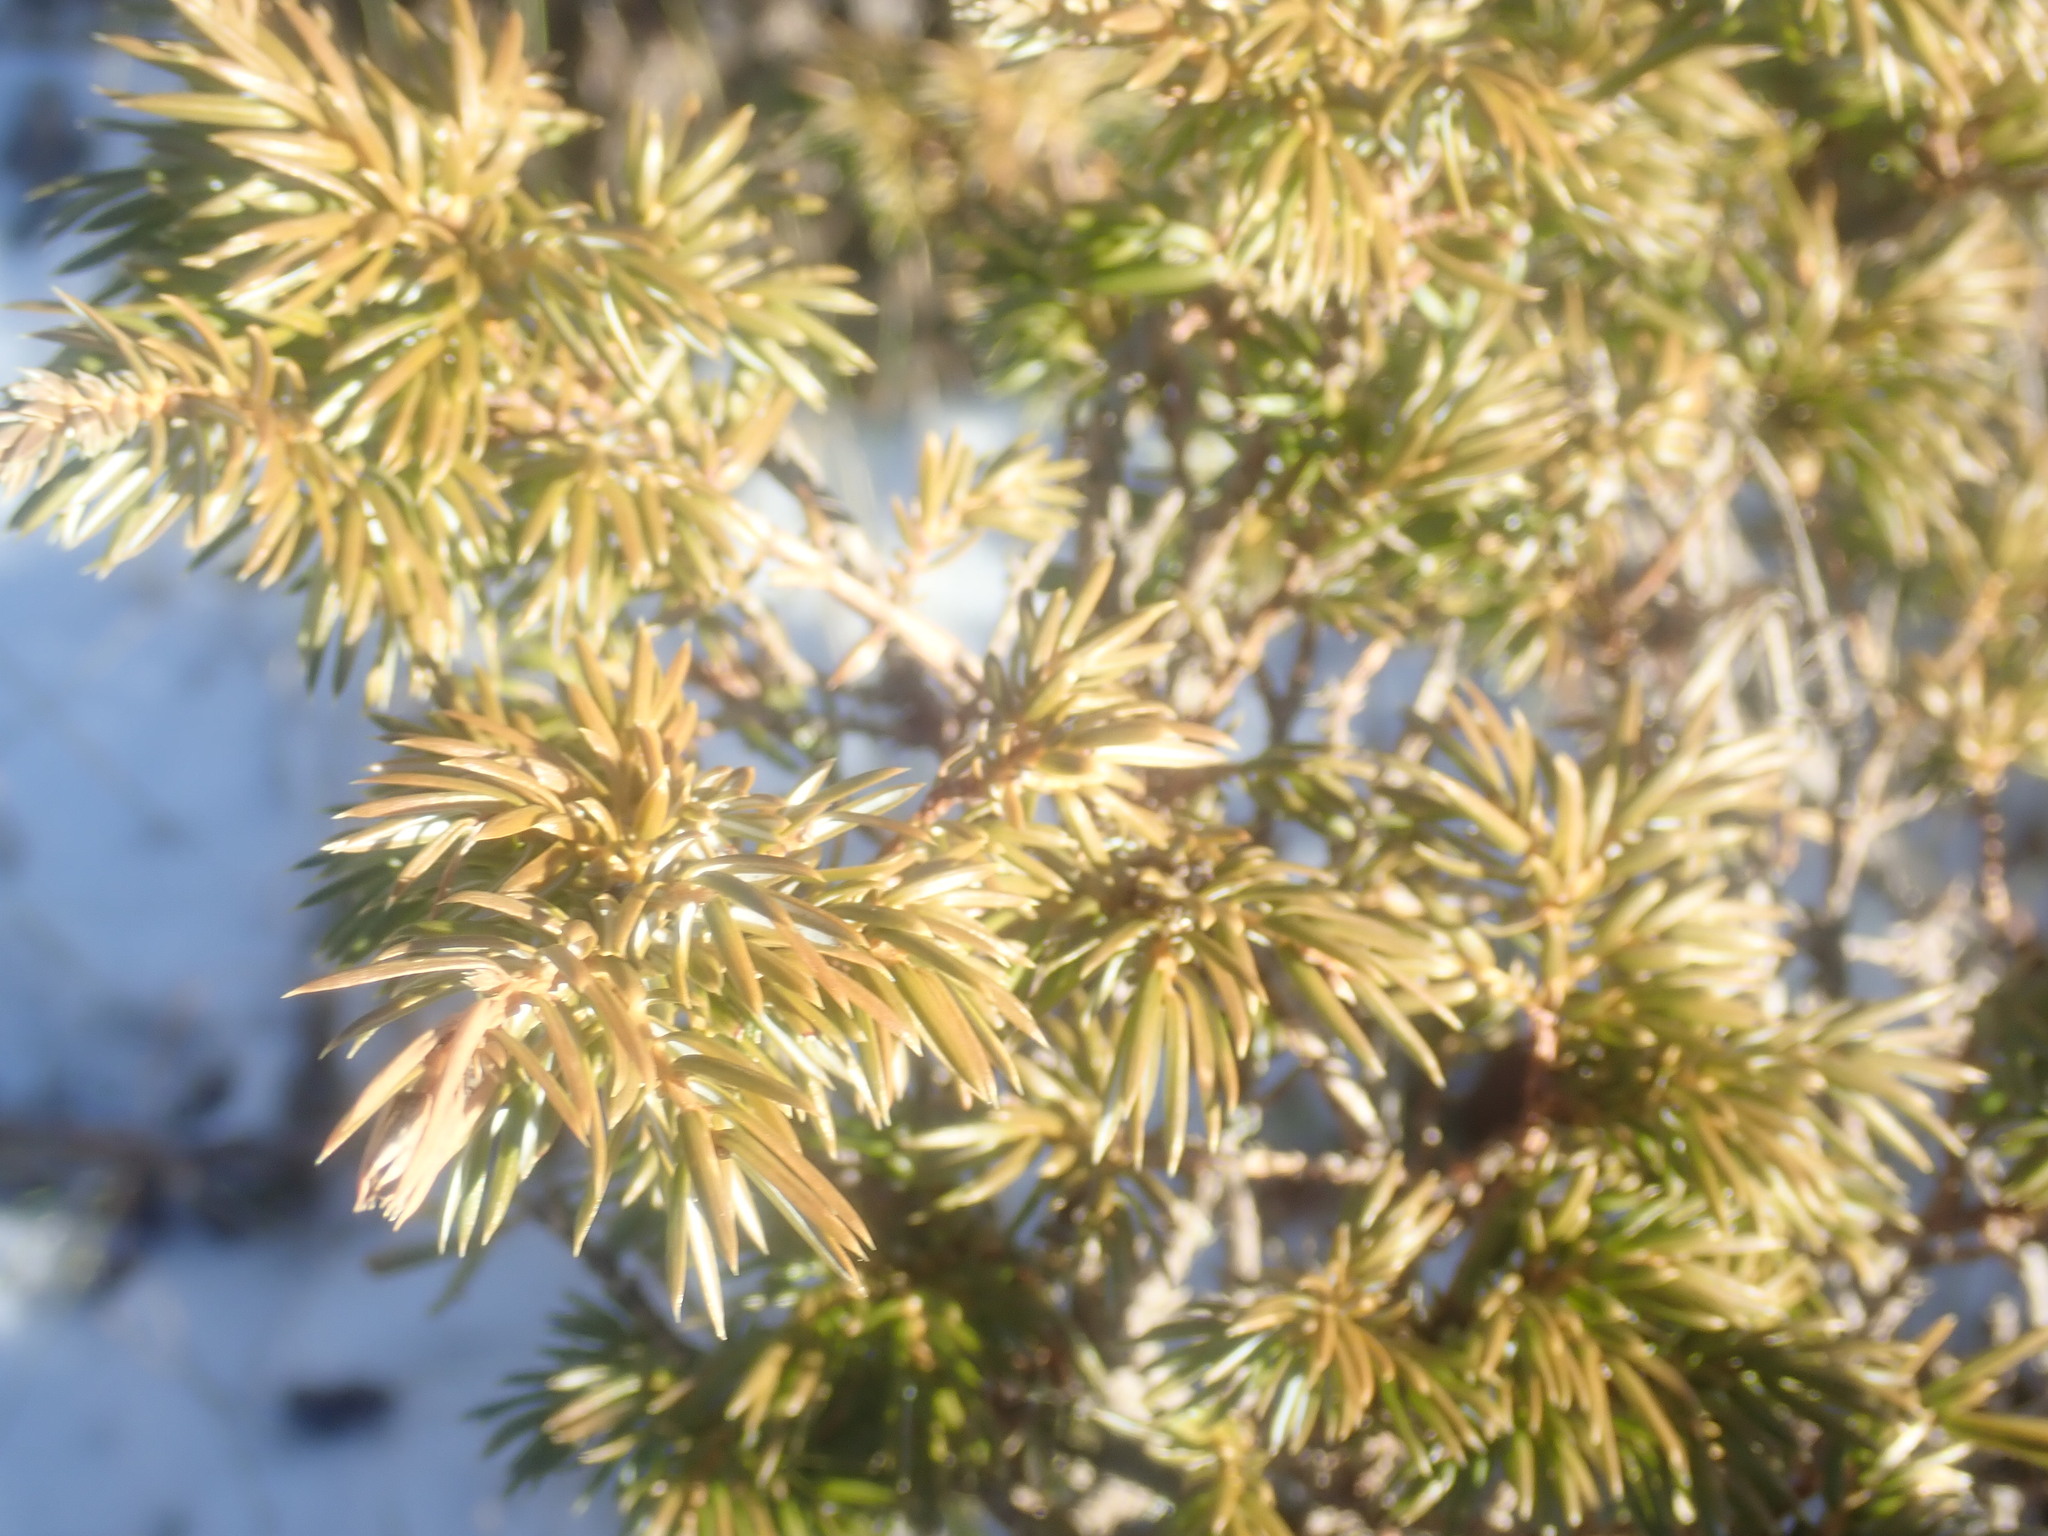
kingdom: Plantae
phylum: Tracheophyta
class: Pinopsida
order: Pinales
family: Cupressaceae
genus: Juniperus
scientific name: Juniperus communis
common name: Common juniper
